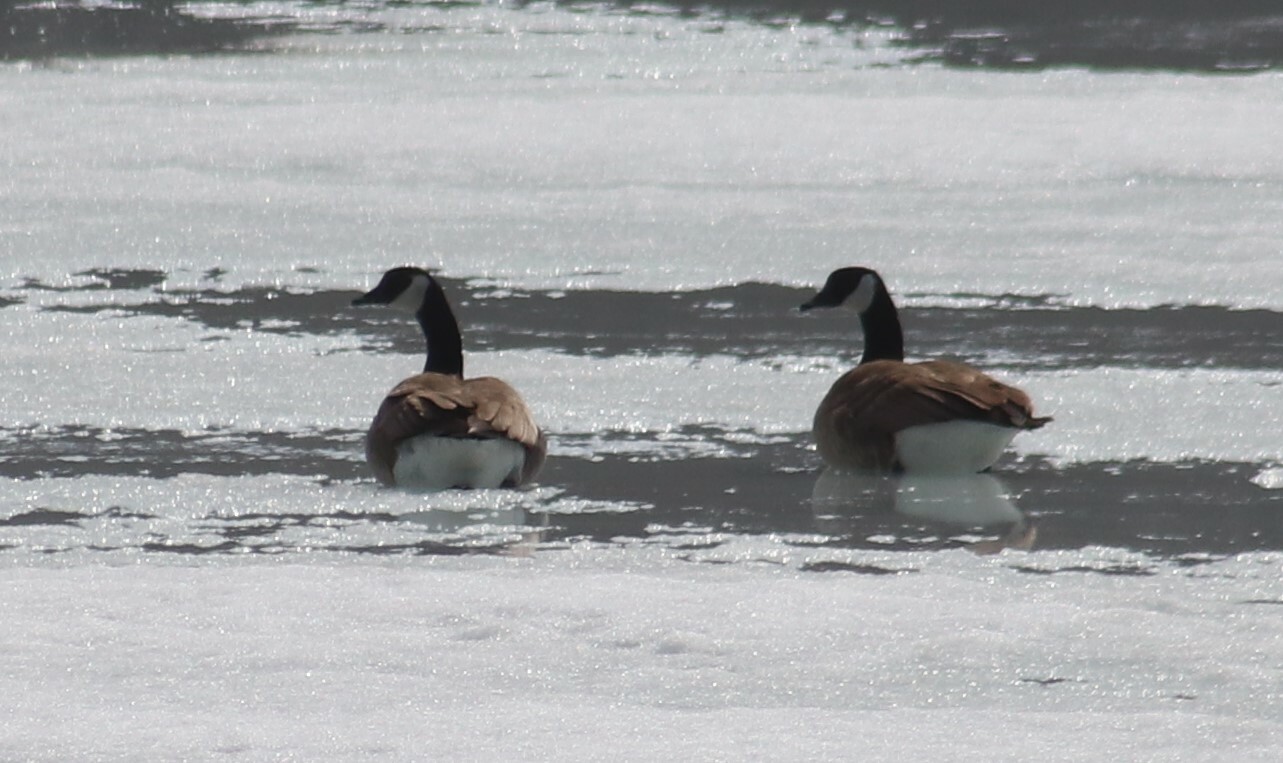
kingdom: Animalia
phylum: Chordata
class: Aves
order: Anseriformes
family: Anatidae
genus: Branta
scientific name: Branta canadensis
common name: Canada goose
